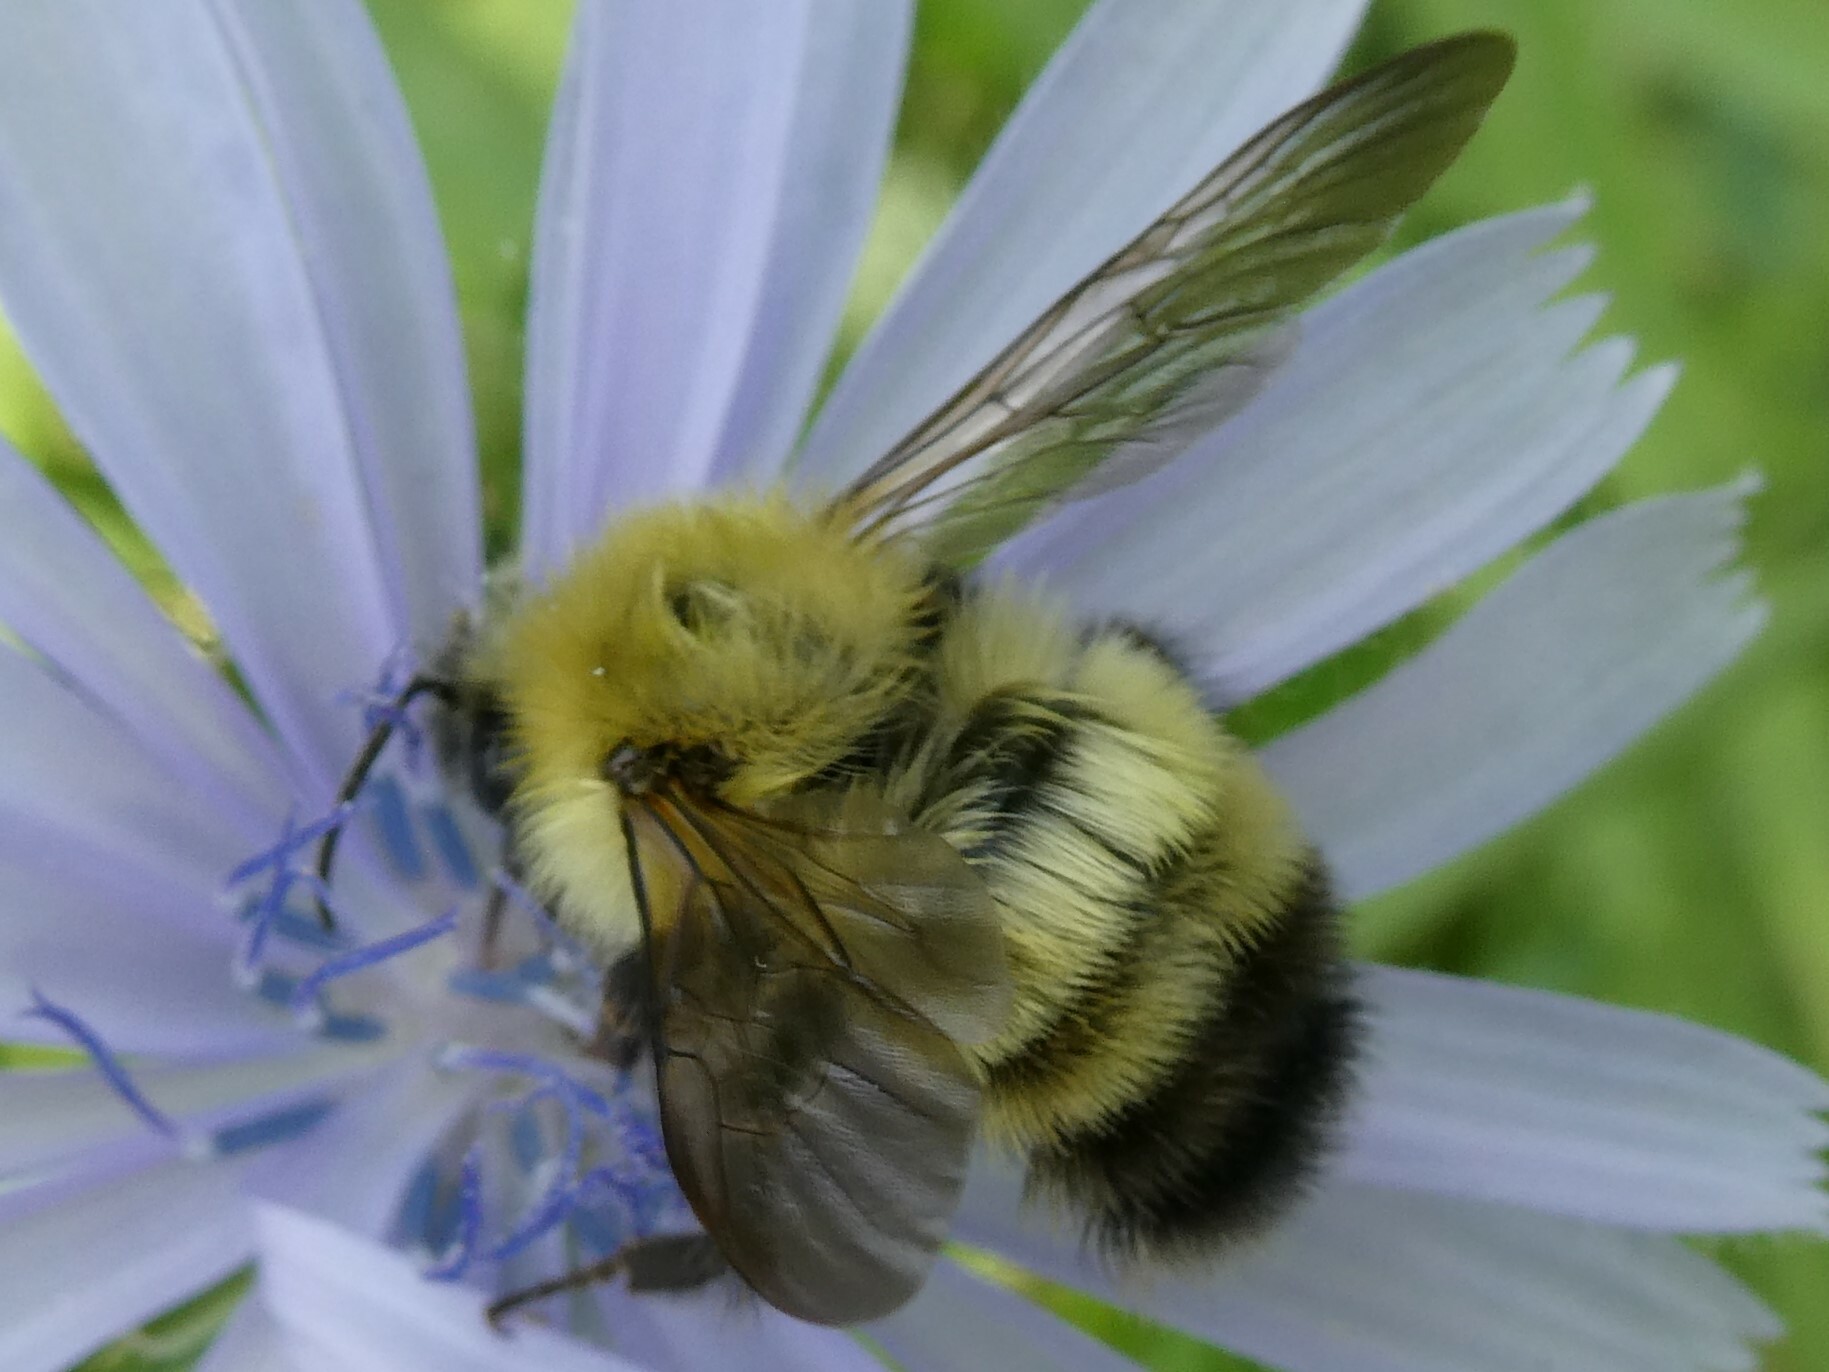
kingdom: Animalia
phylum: Arthropoda
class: Insecta
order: Hymenoptera
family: Apidae
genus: Bombus
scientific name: Bombus perplexus
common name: Confusing bumble bee
